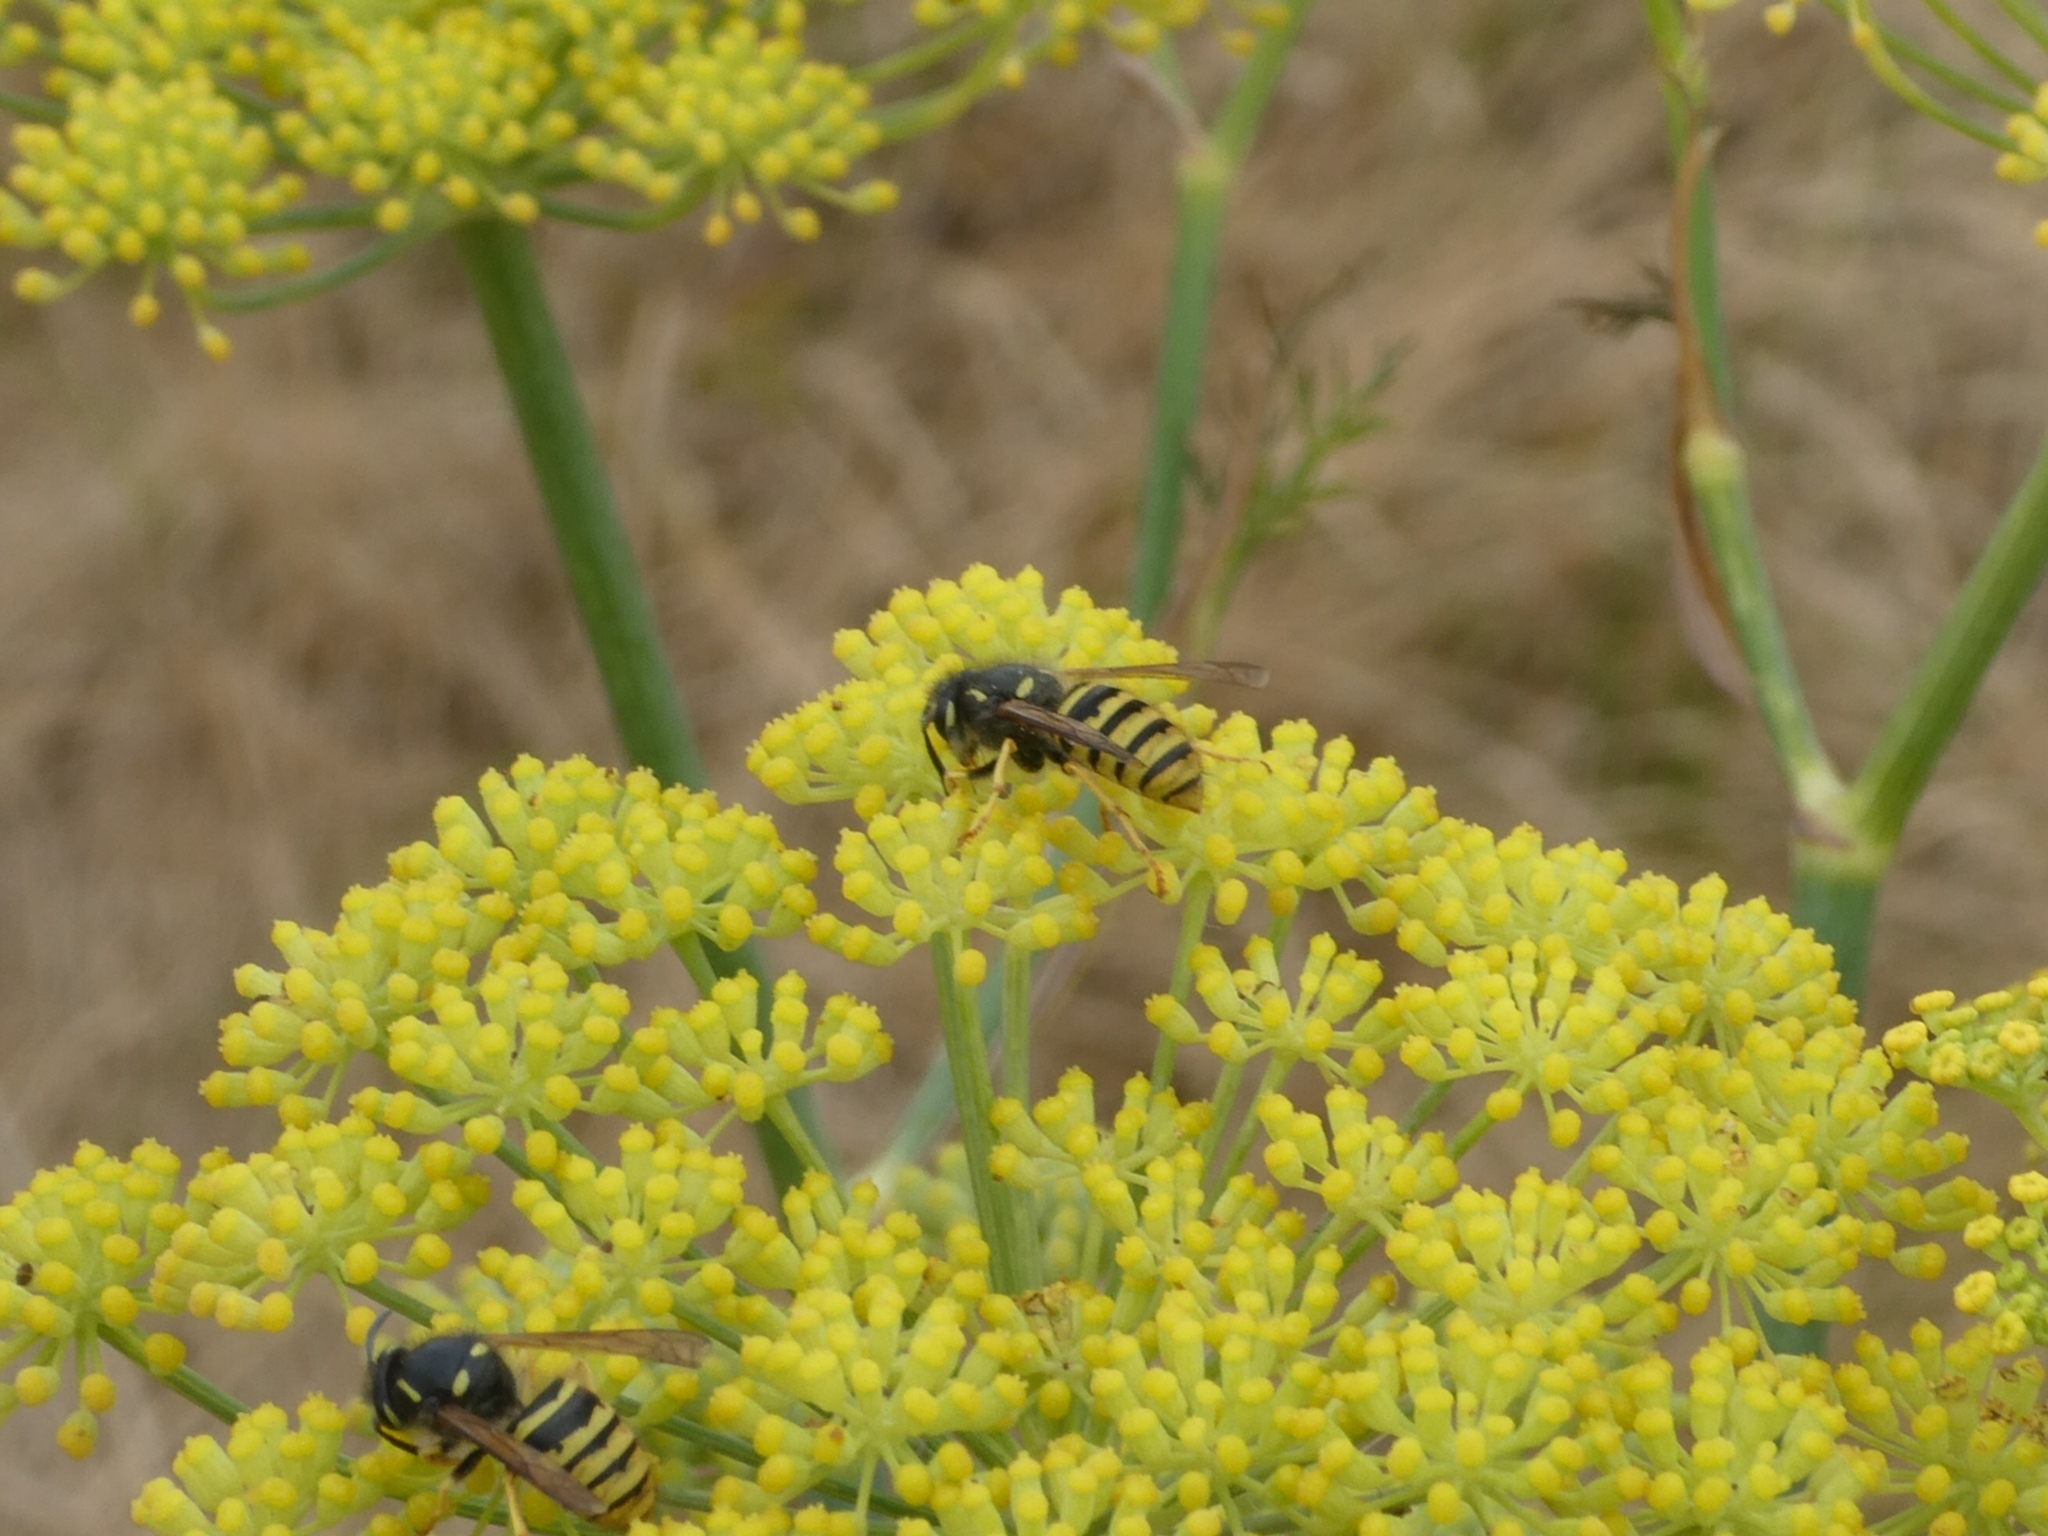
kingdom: Animalia
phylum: Arthropoda
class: Insecta
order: Hymenoptera
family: Vespidae
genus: Dolichovespula
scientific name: Dolichovespula sylvestris
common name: Tree wasp
